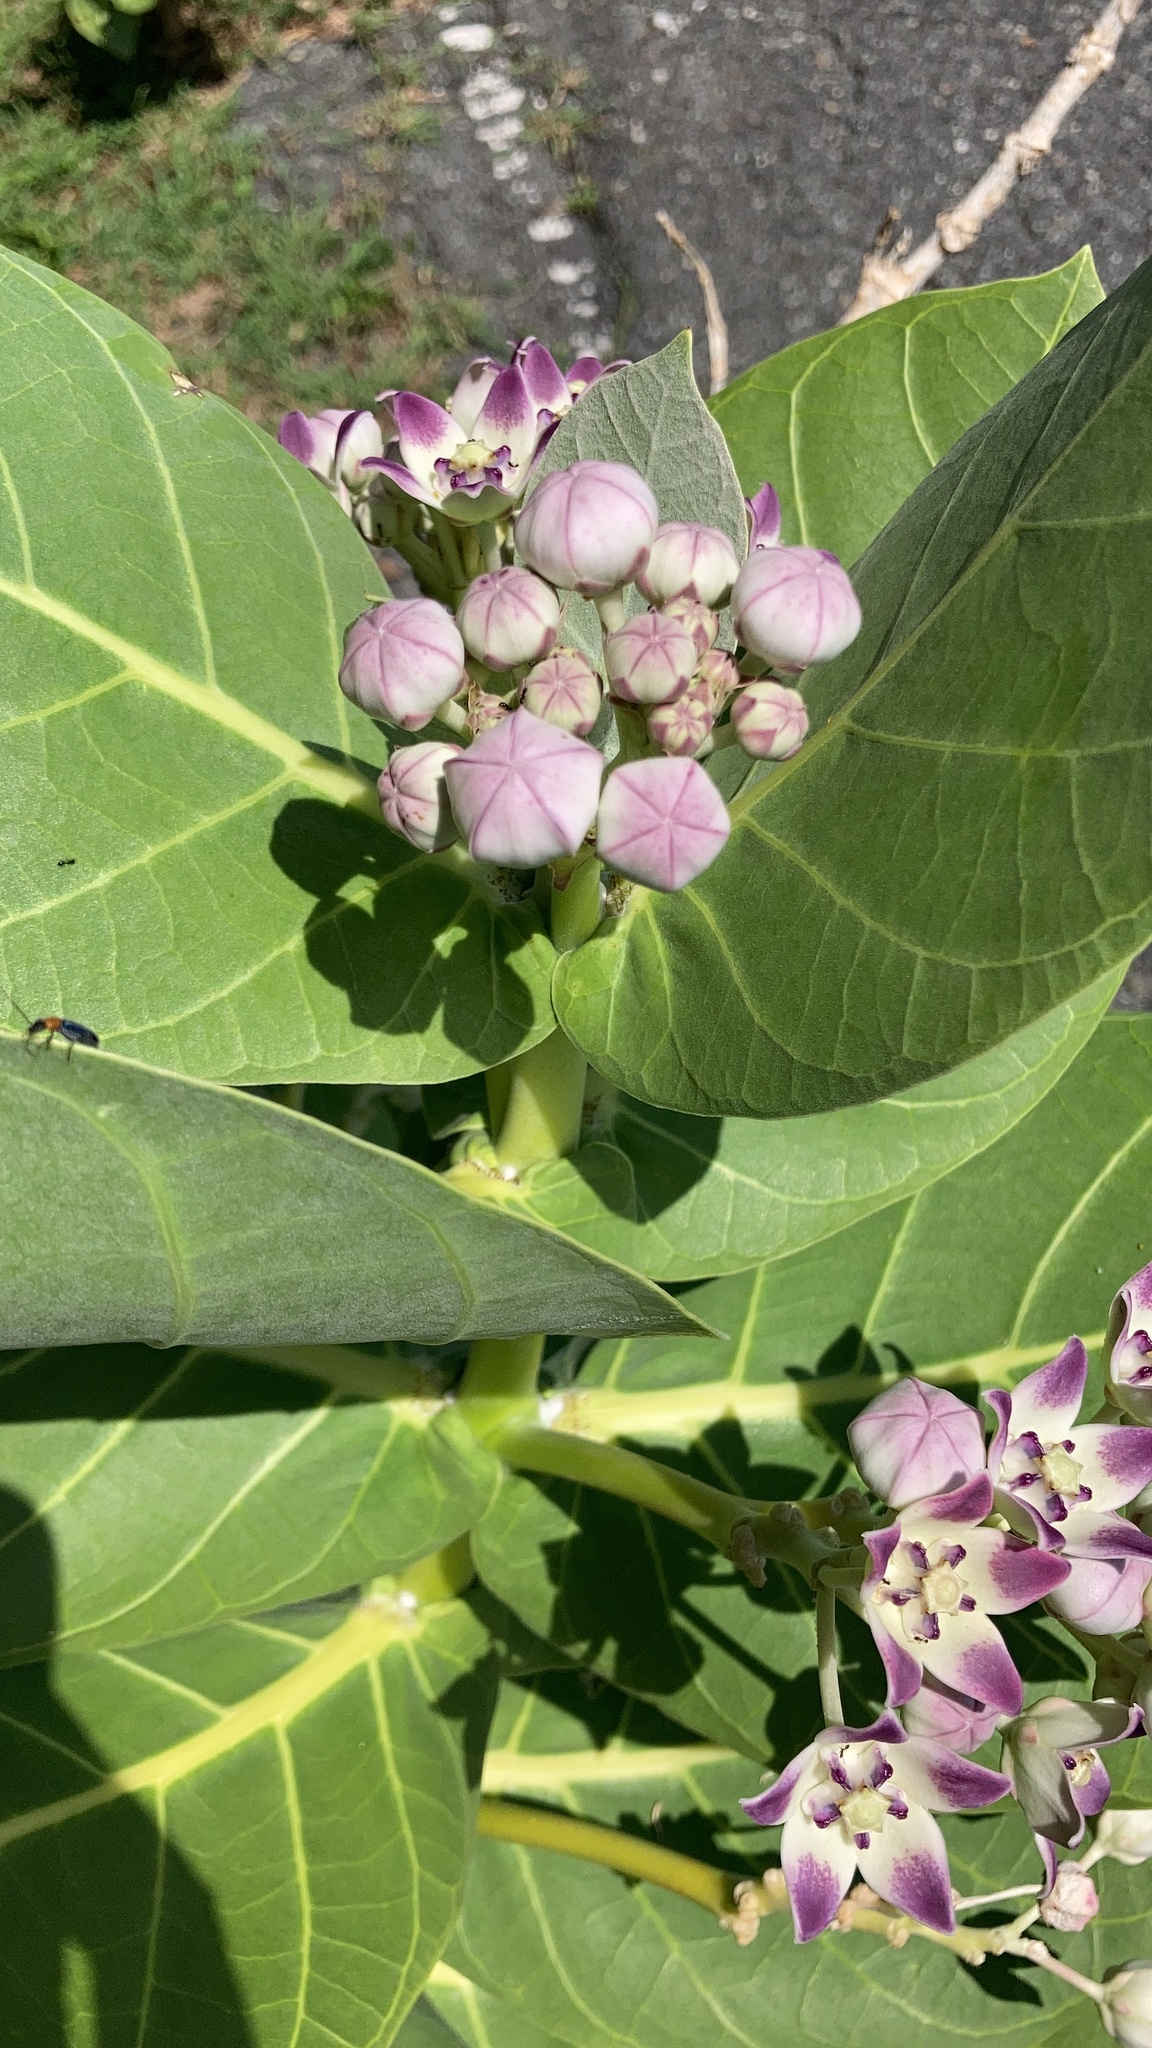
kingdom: Plantae
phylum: Tracheophyta
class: Magnoliopsida
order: Gentianales
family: Apocynaceae
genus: Calotropis
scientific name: Calotropis procera
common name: Roostertree
